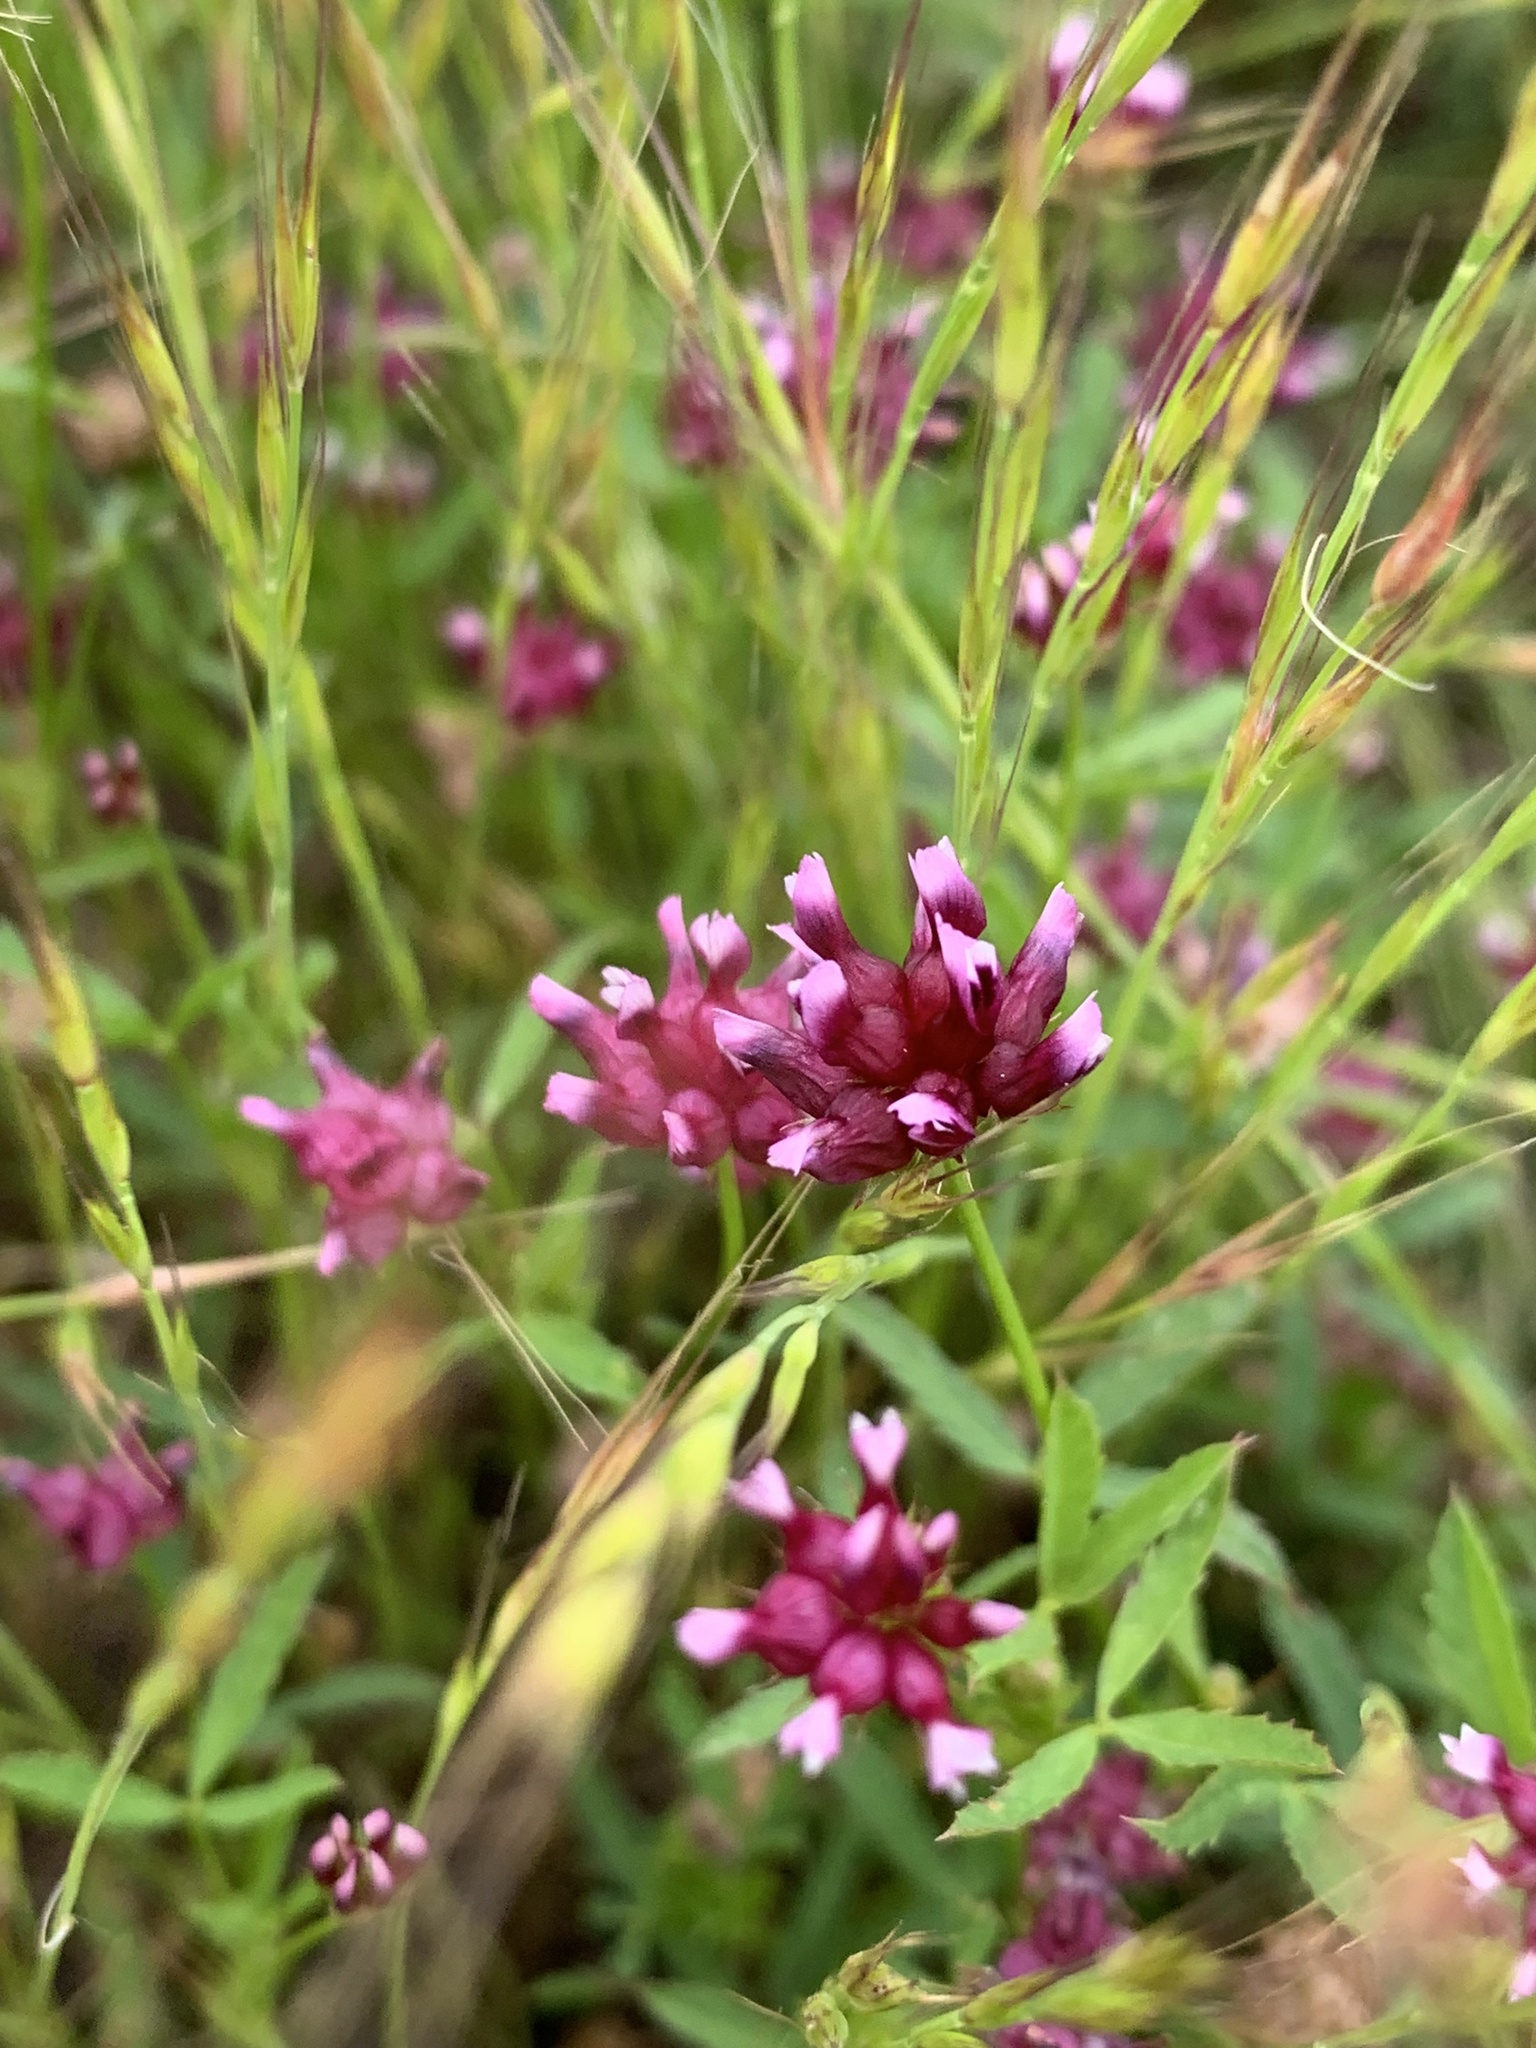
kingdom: Plantae
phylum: Tracheophyta
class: Magnoliopsida
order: Fabales
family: Fabaceae
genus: Trifolium
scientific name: Trifolium depauperatum
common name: Poverty clover
